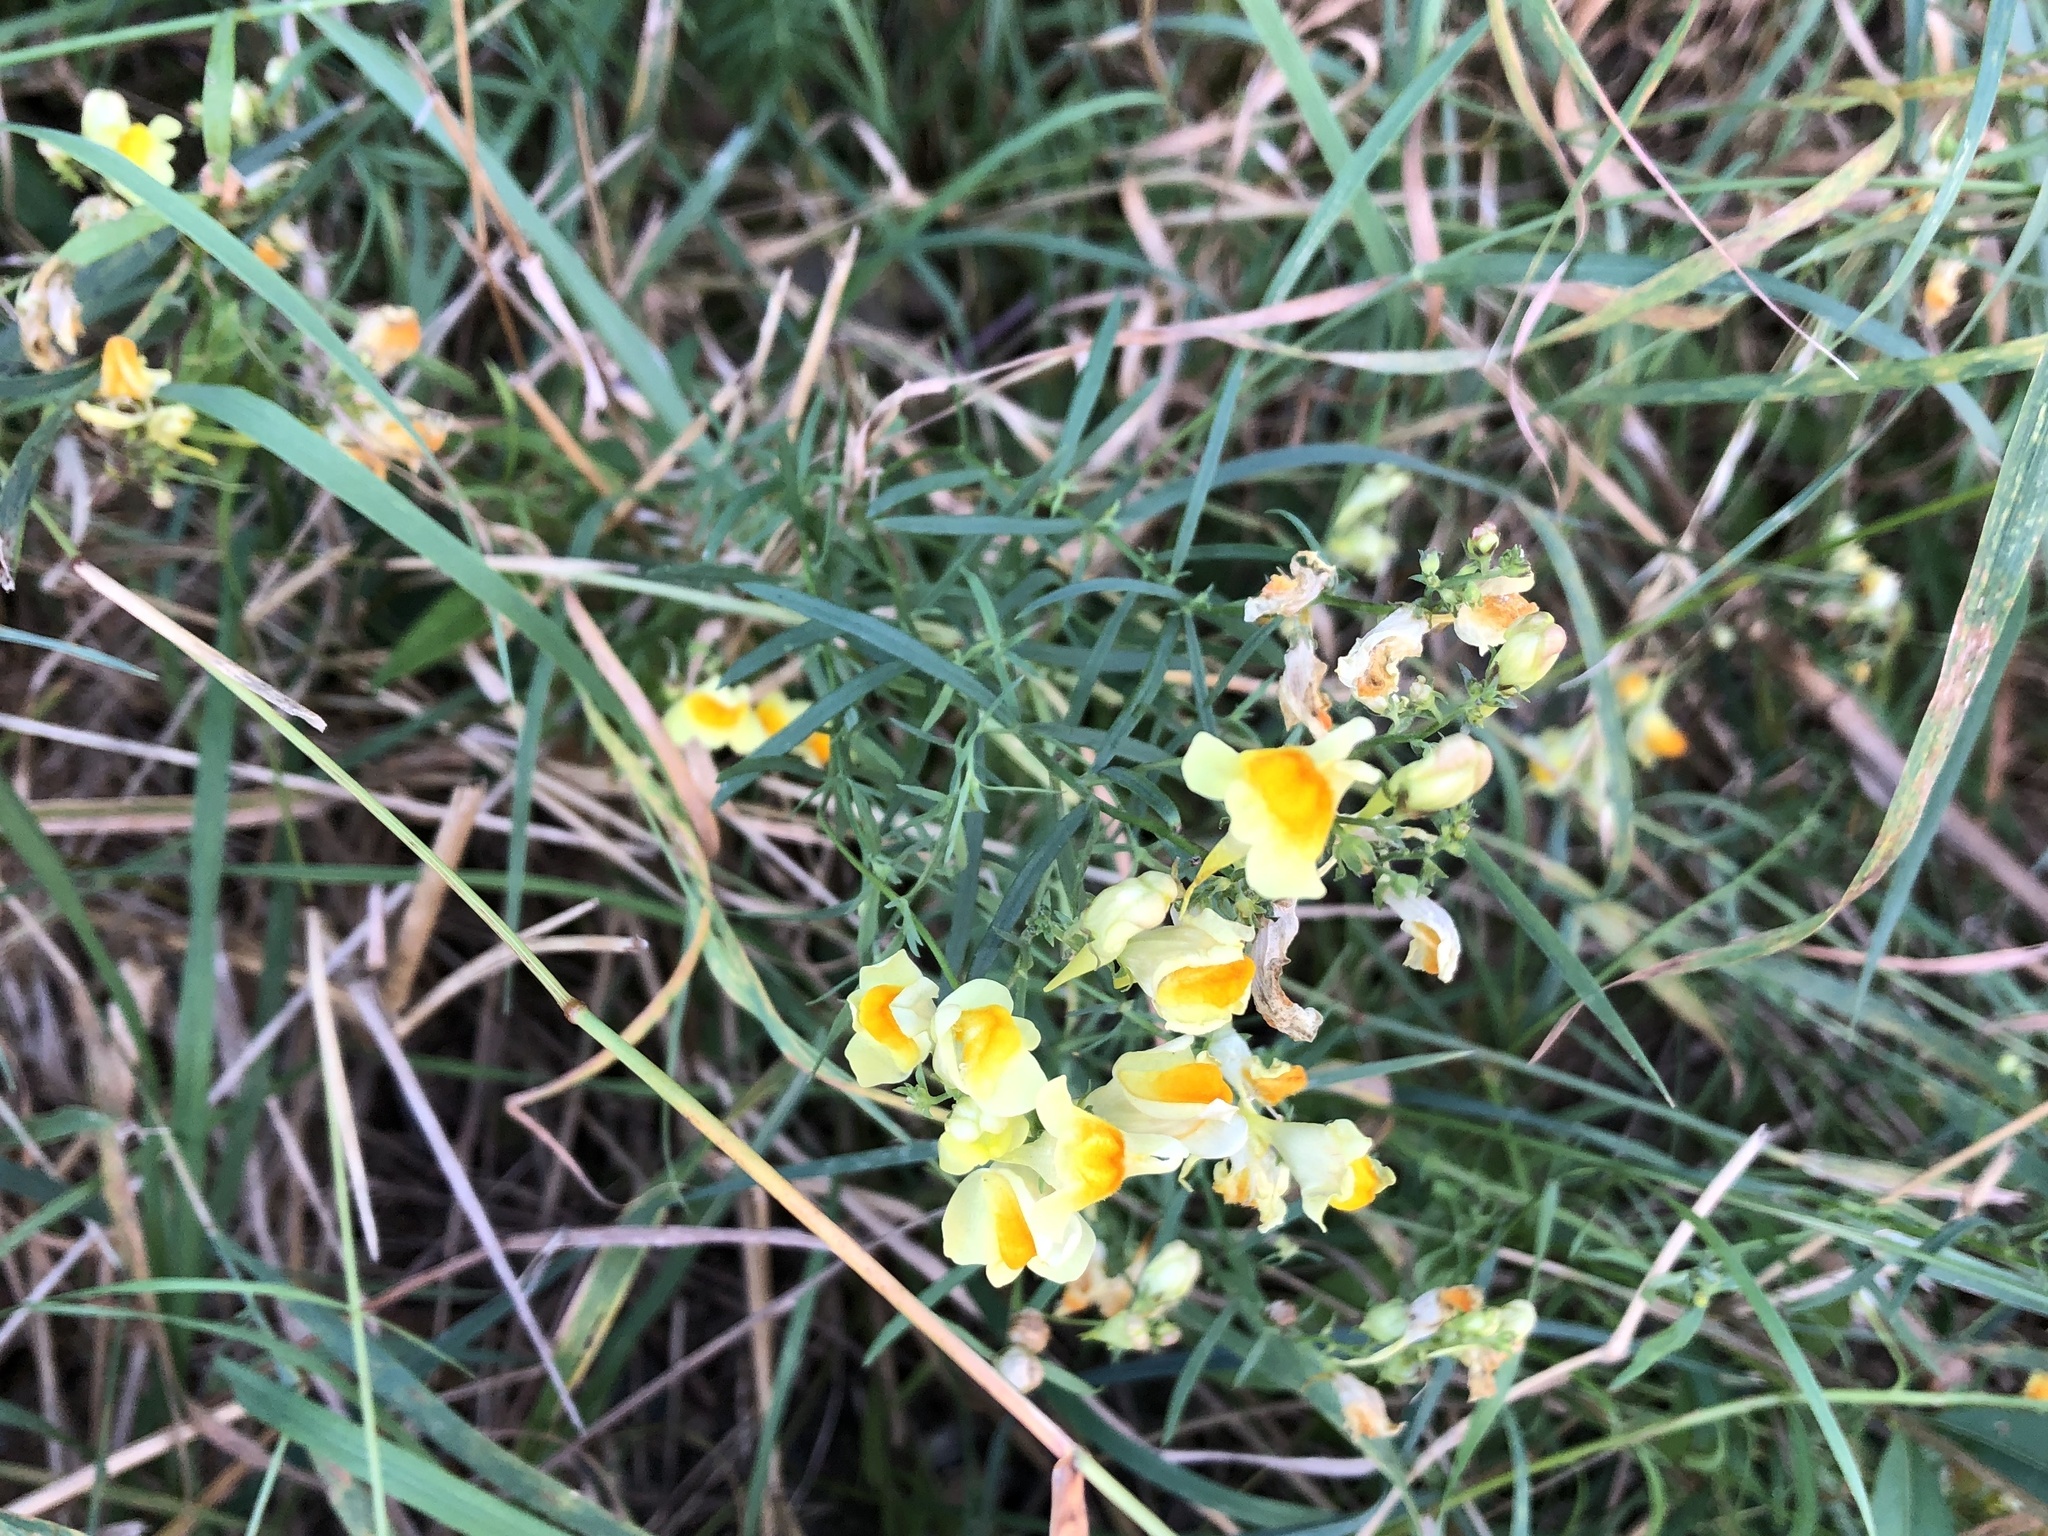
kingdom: Plantae
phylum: Tracheophyta
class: Magnoliopsida
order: Lamiales
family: Plantaginaceae
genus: Linaria
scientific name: Linaria vulgaris
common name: Butter and eggs
